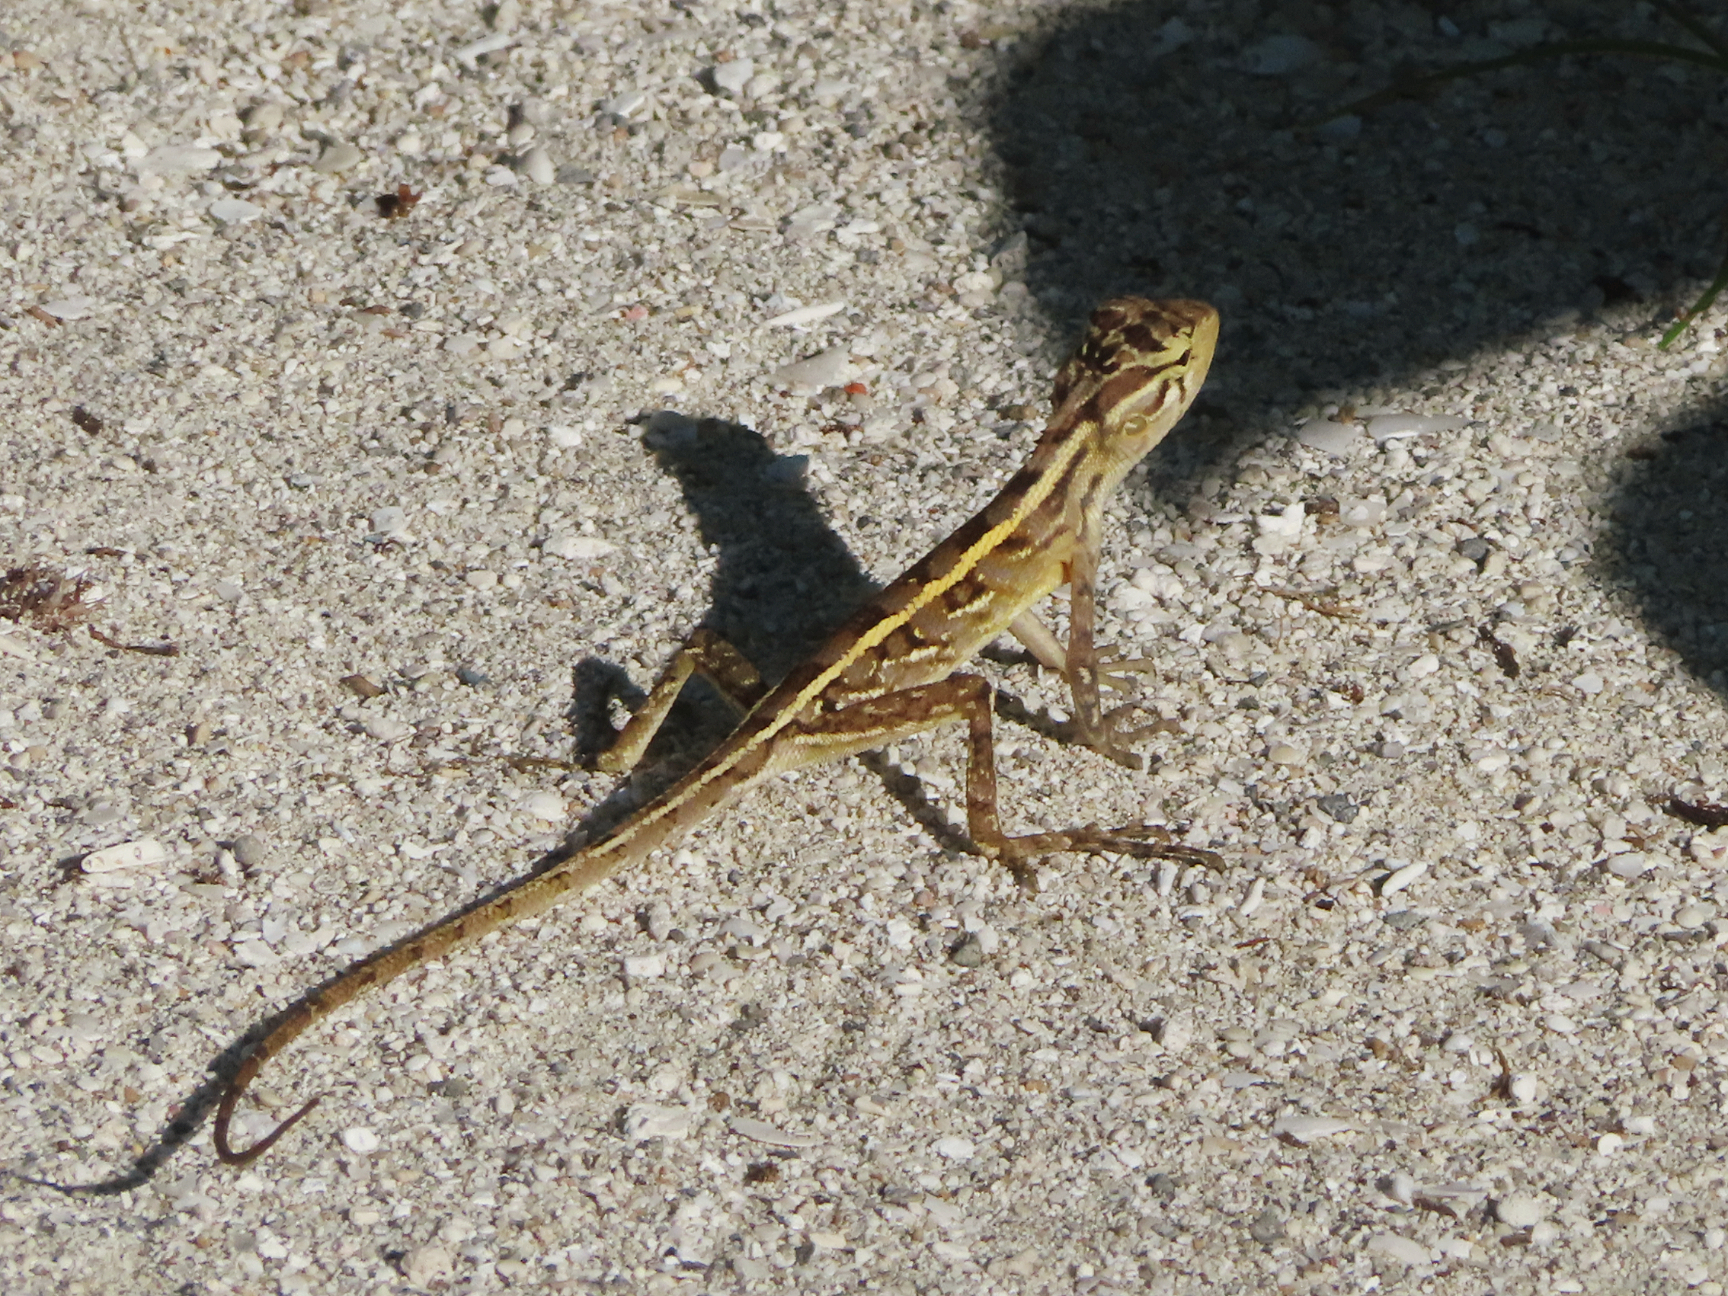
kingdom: Animalia
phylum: Chordata
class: Squamata
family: Agamidae
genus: Calotes
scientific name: Calotes versicolor
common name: Oriental garden lizard
